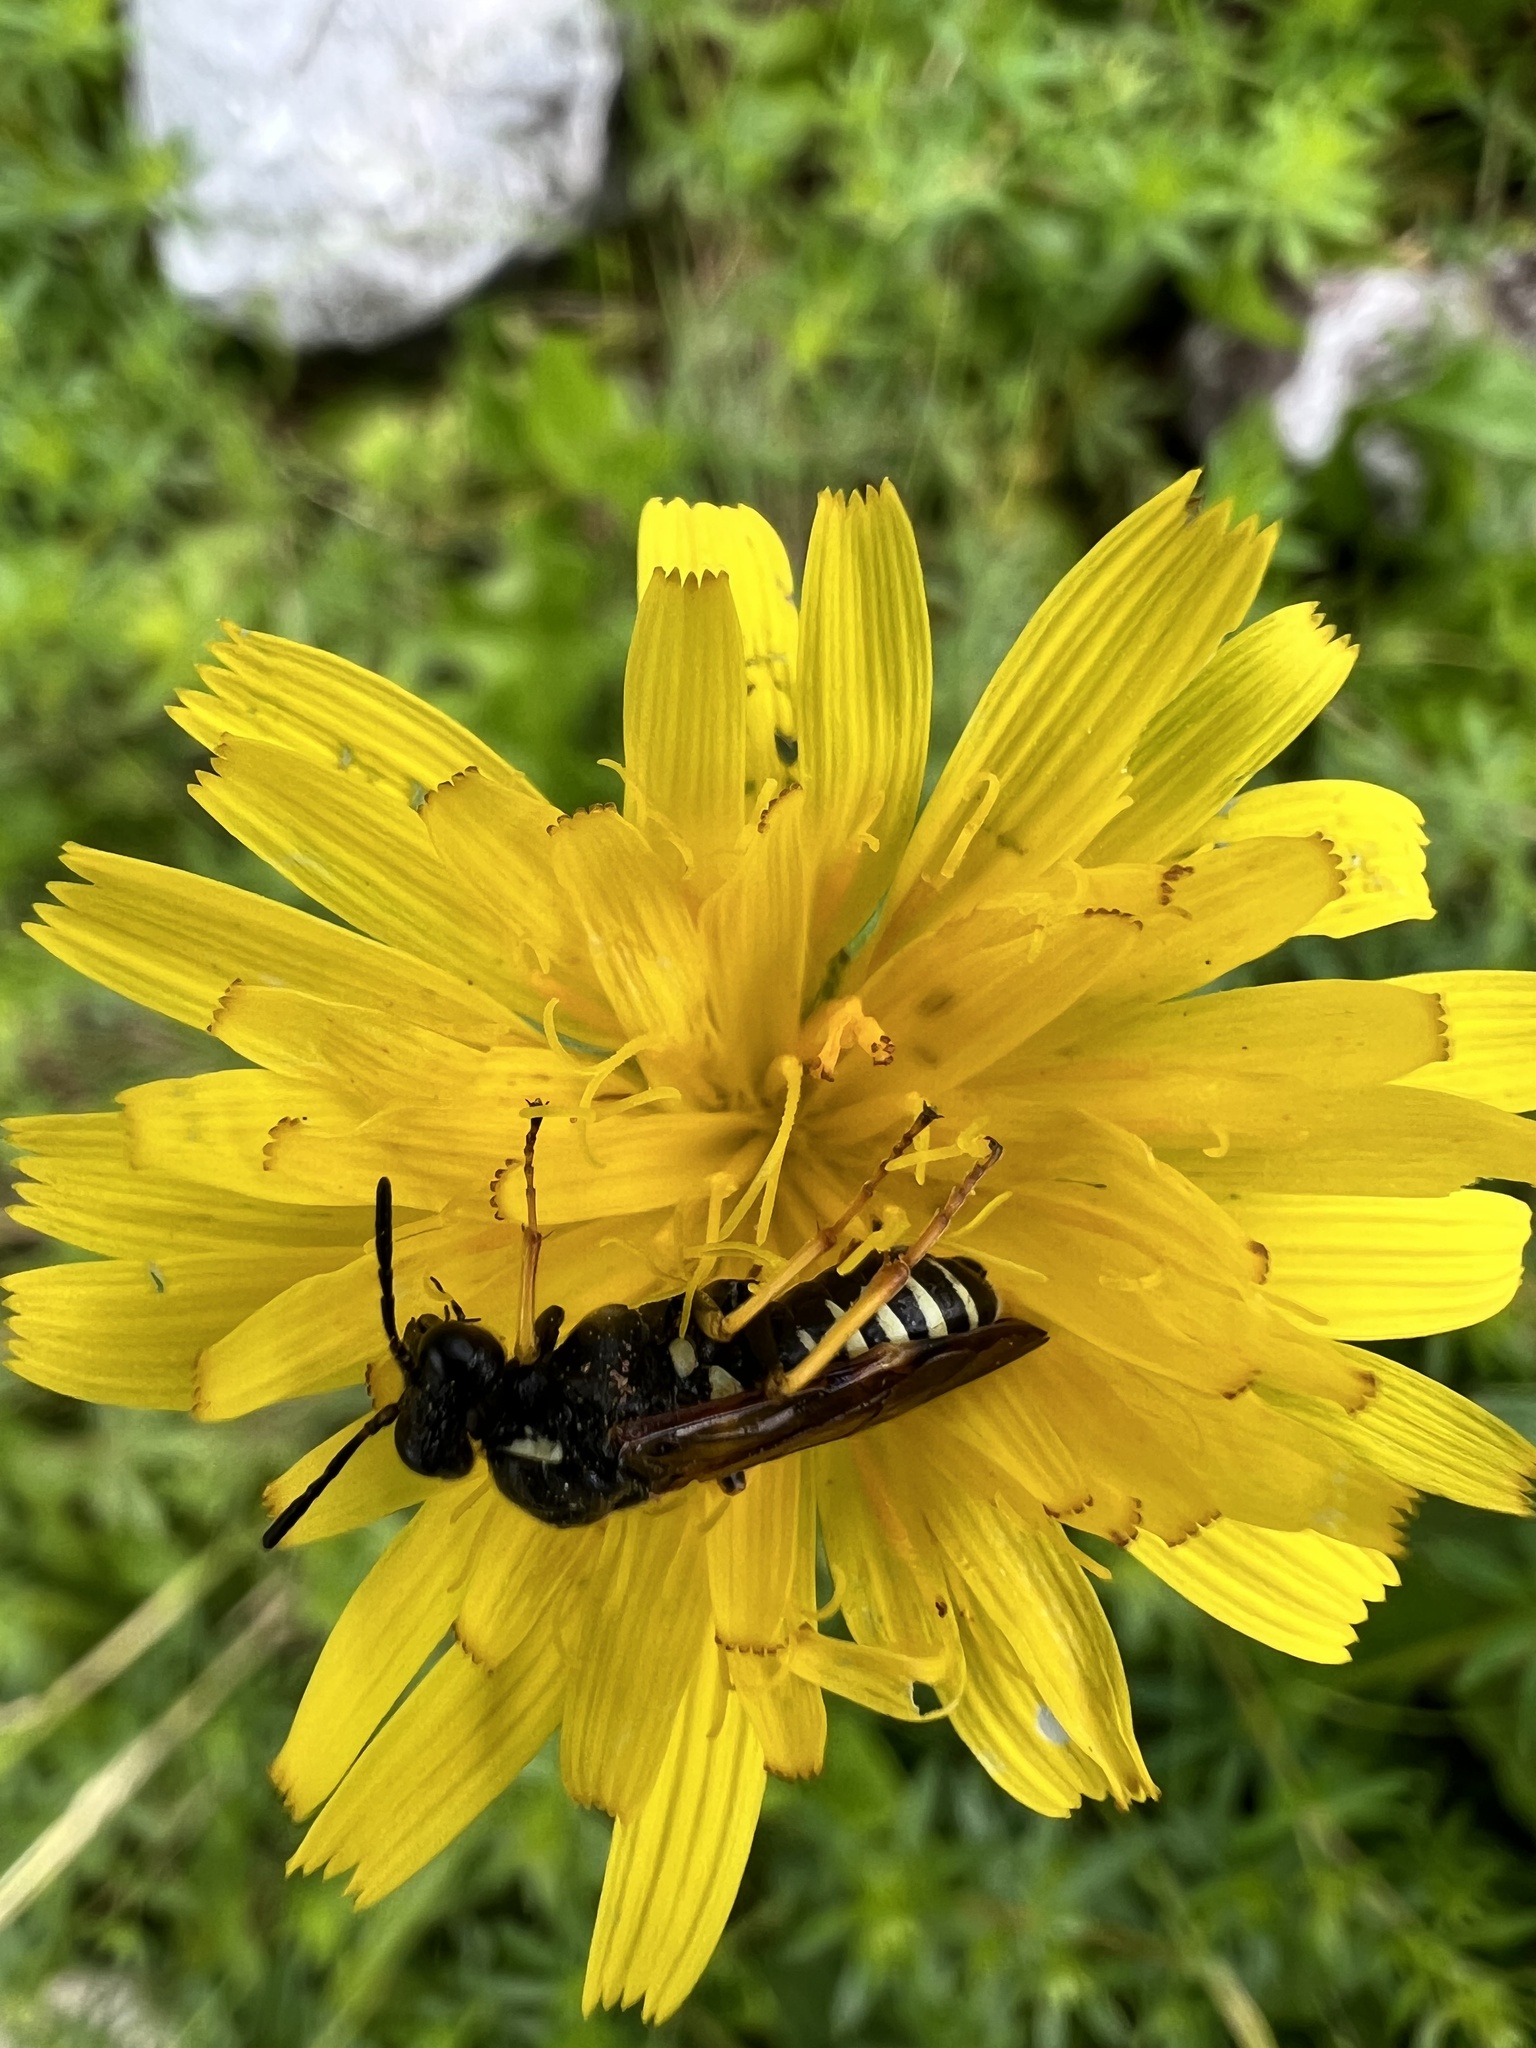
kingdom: Animalia
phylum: Arthropoda
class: Insecta
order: Hymenoptera
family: Tenthredinidae
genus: Tenthredo
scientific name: Tenthredo koehleri
